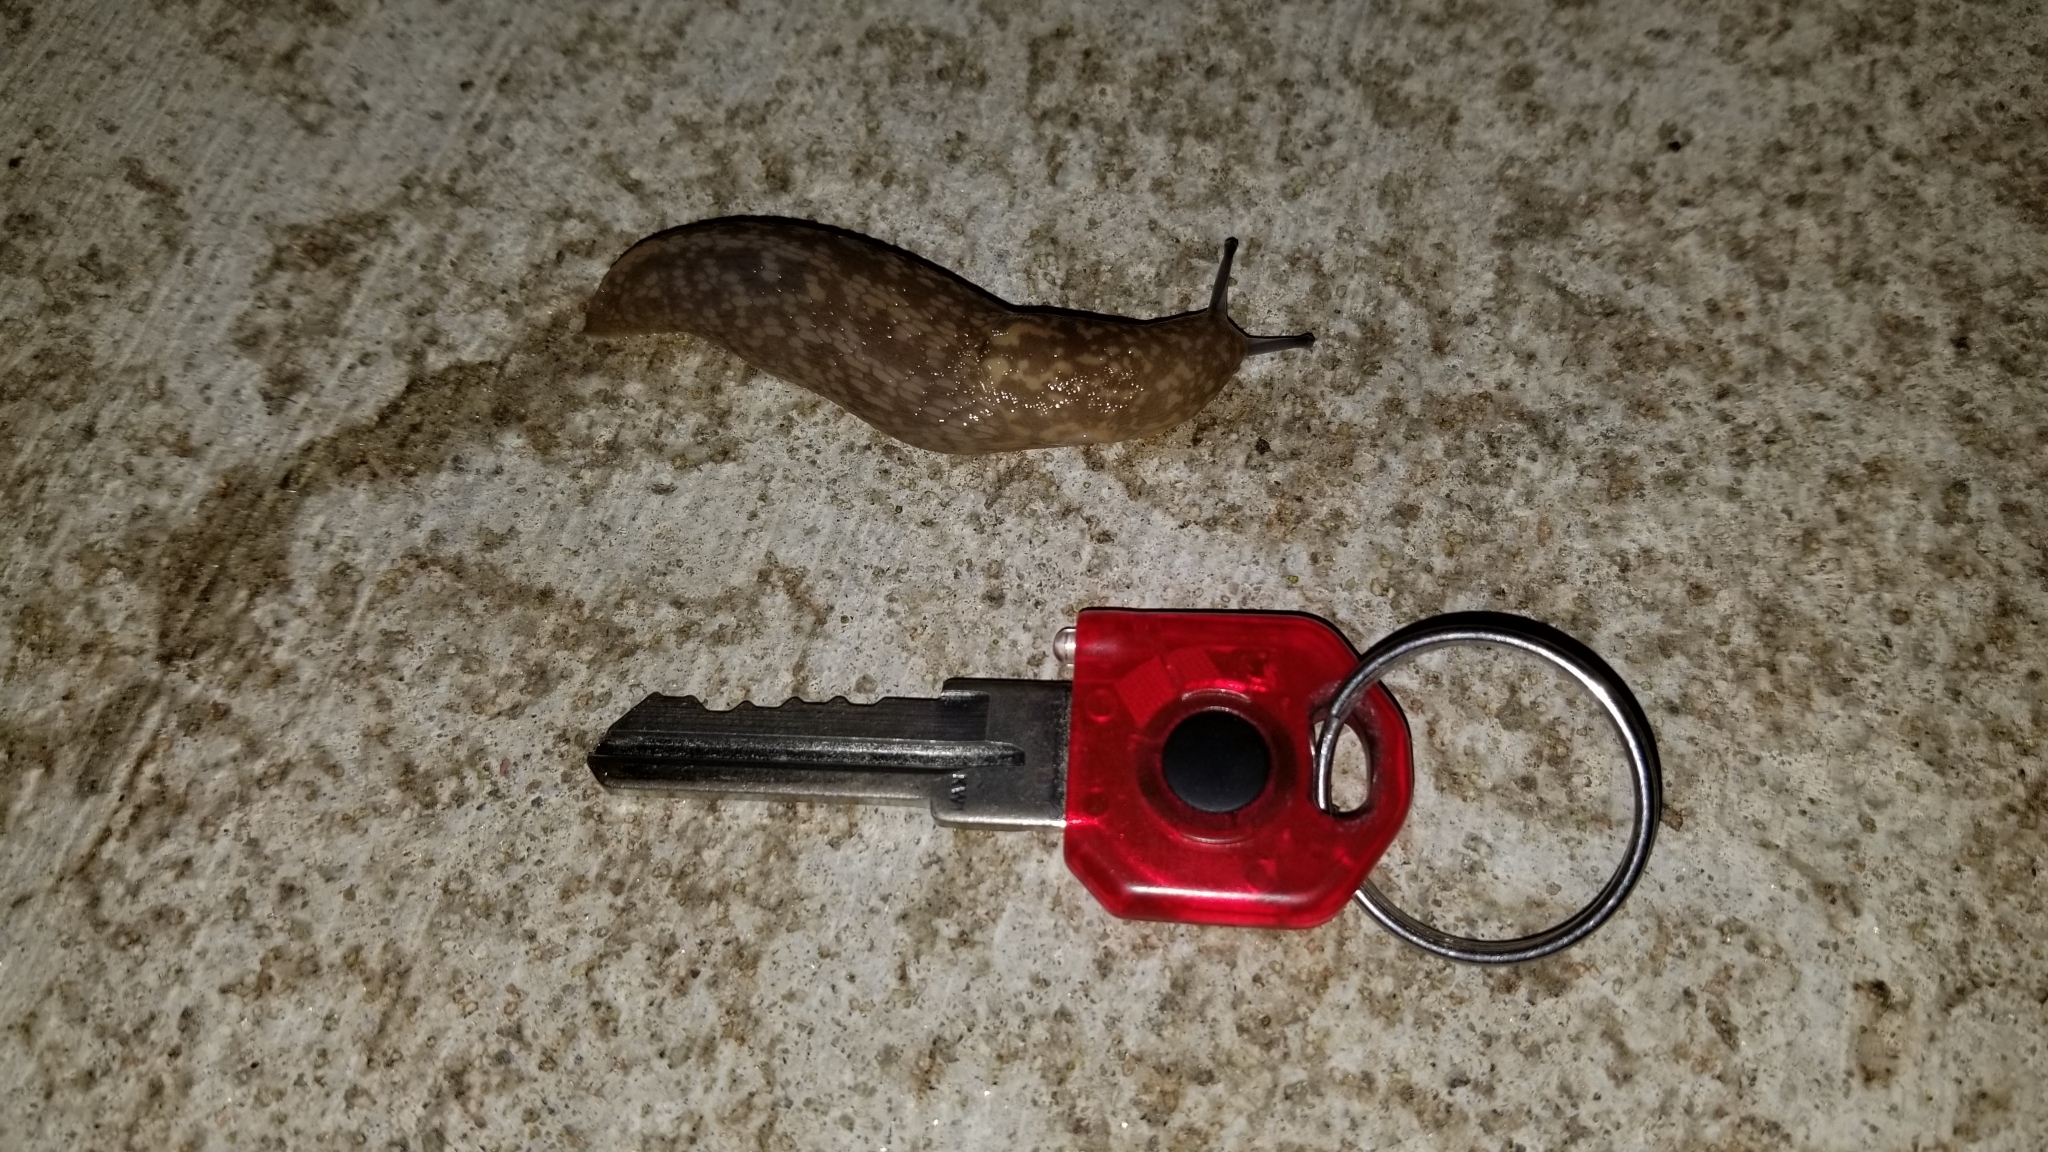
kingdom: Animalia
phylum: Mollusca
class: Gastropoda
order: Stylommatophora
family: Limacidae
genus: Limacus
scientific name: Limacus flavus
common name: Yellow gardenslug
